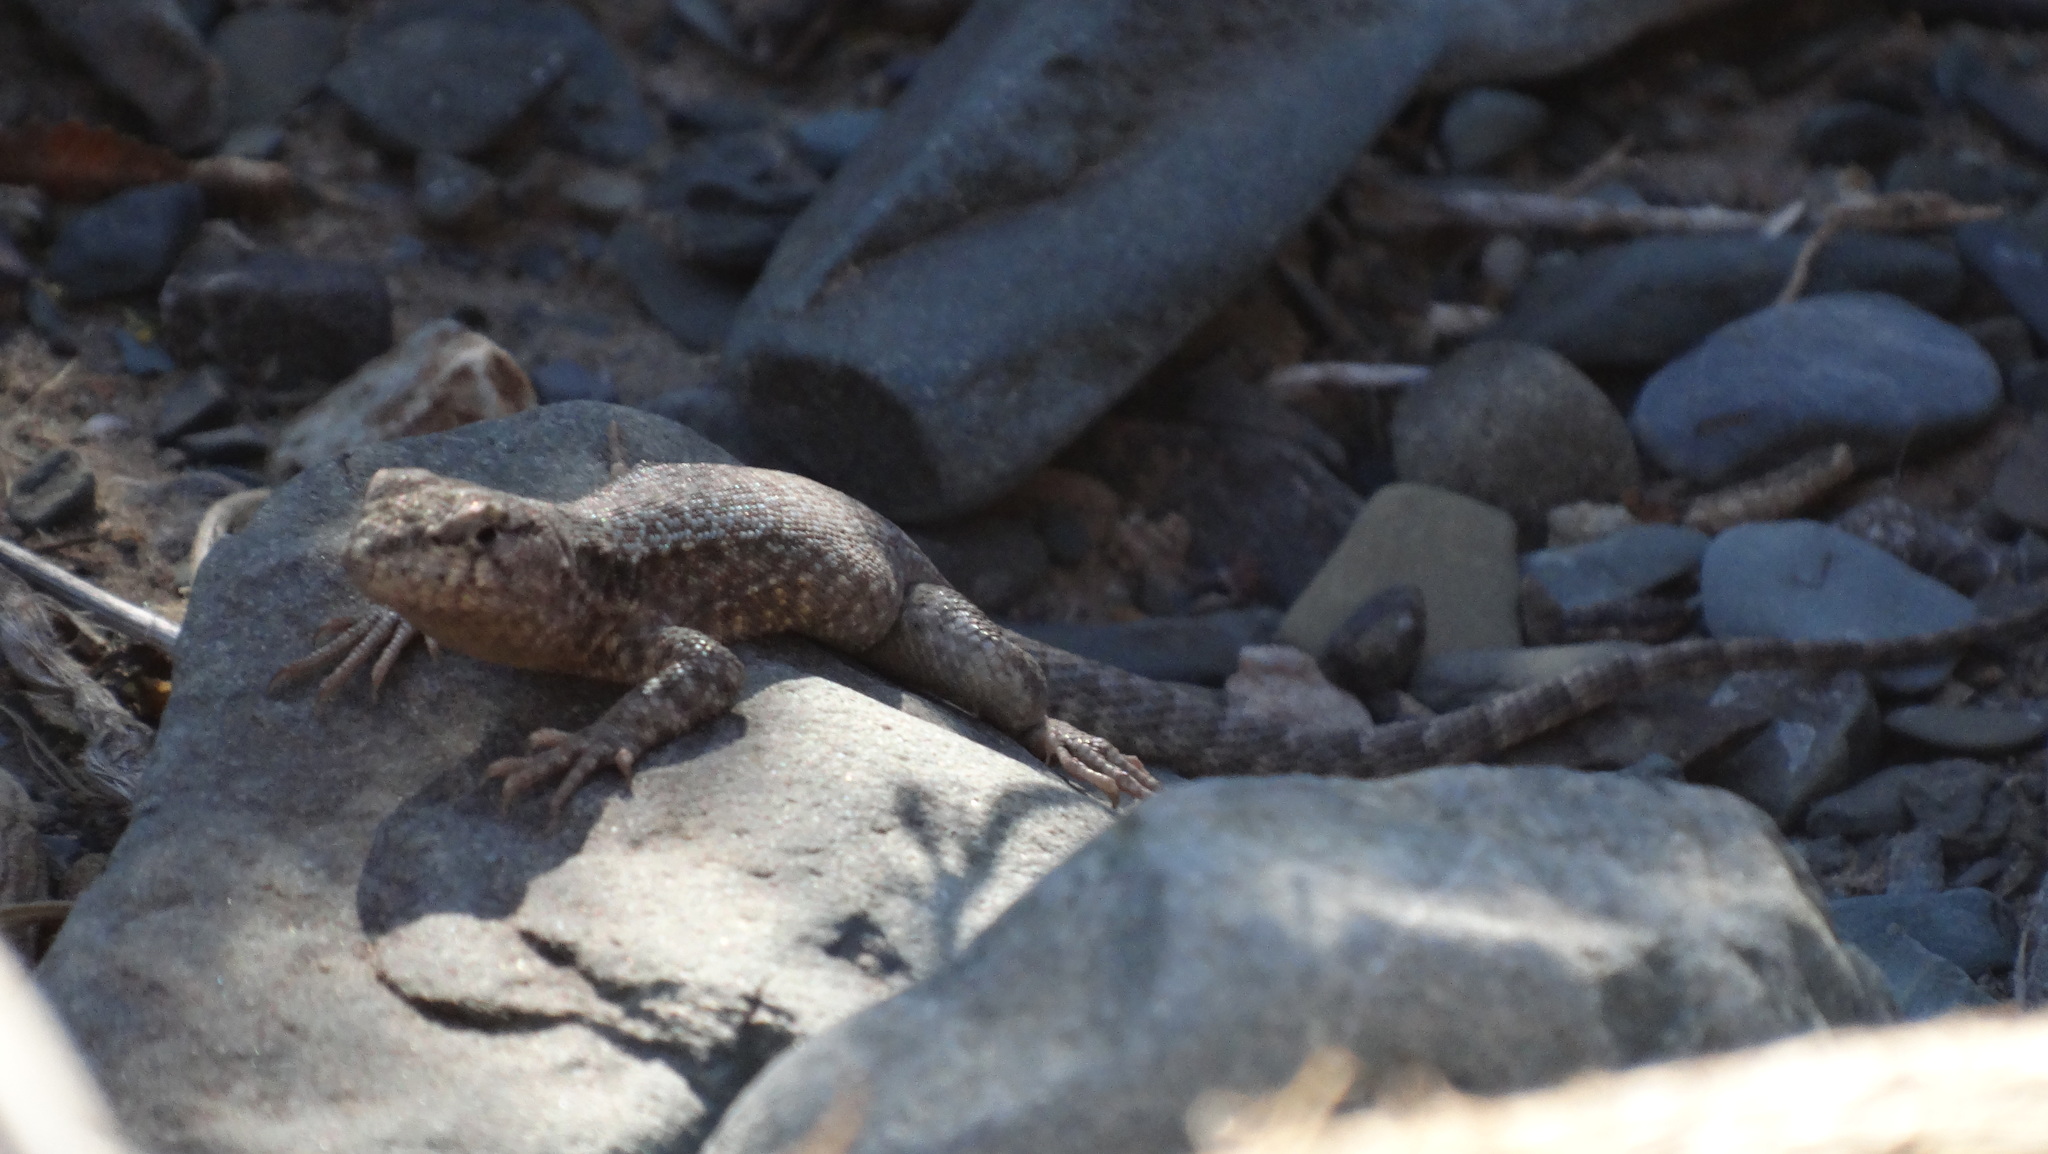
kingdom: Animalia
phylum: Chordata
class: Squamata
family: Liolaemidae
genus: Liolaemus
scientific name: Liolaemus austromendocinus
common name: Austromendocino tree iguana
